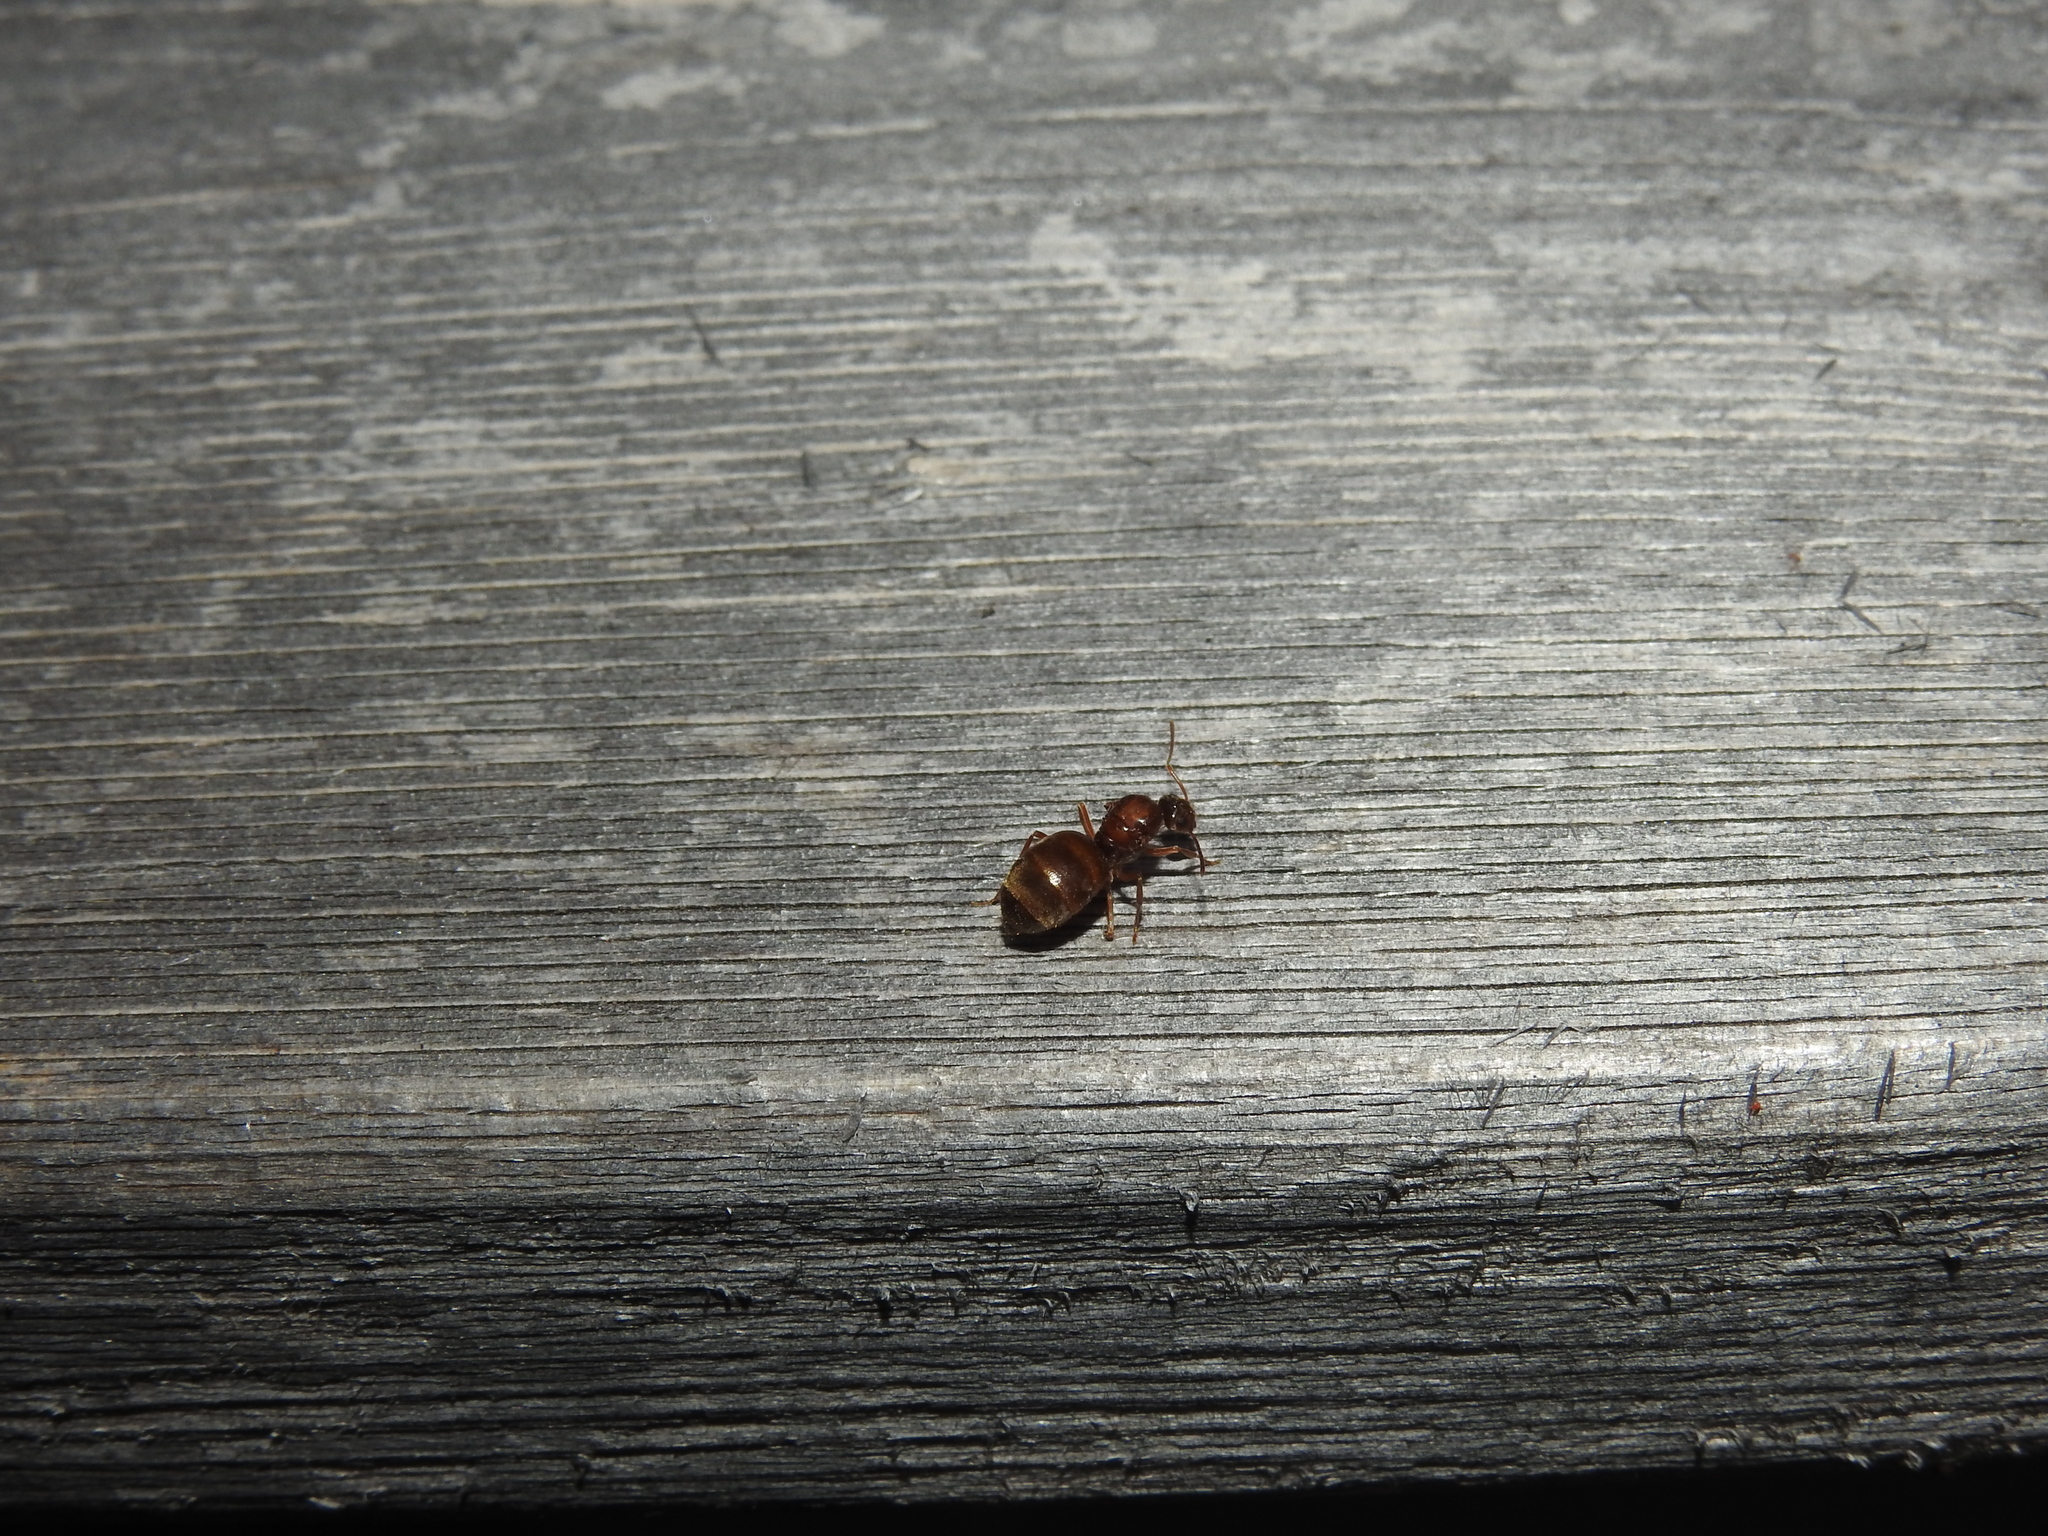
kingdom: Animalia
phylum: Arthropoda
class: Insecta
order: Hymenoptera
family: Formicidae
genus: Prenolepis
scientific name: Prenolepis imparis
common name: Small honey ant
